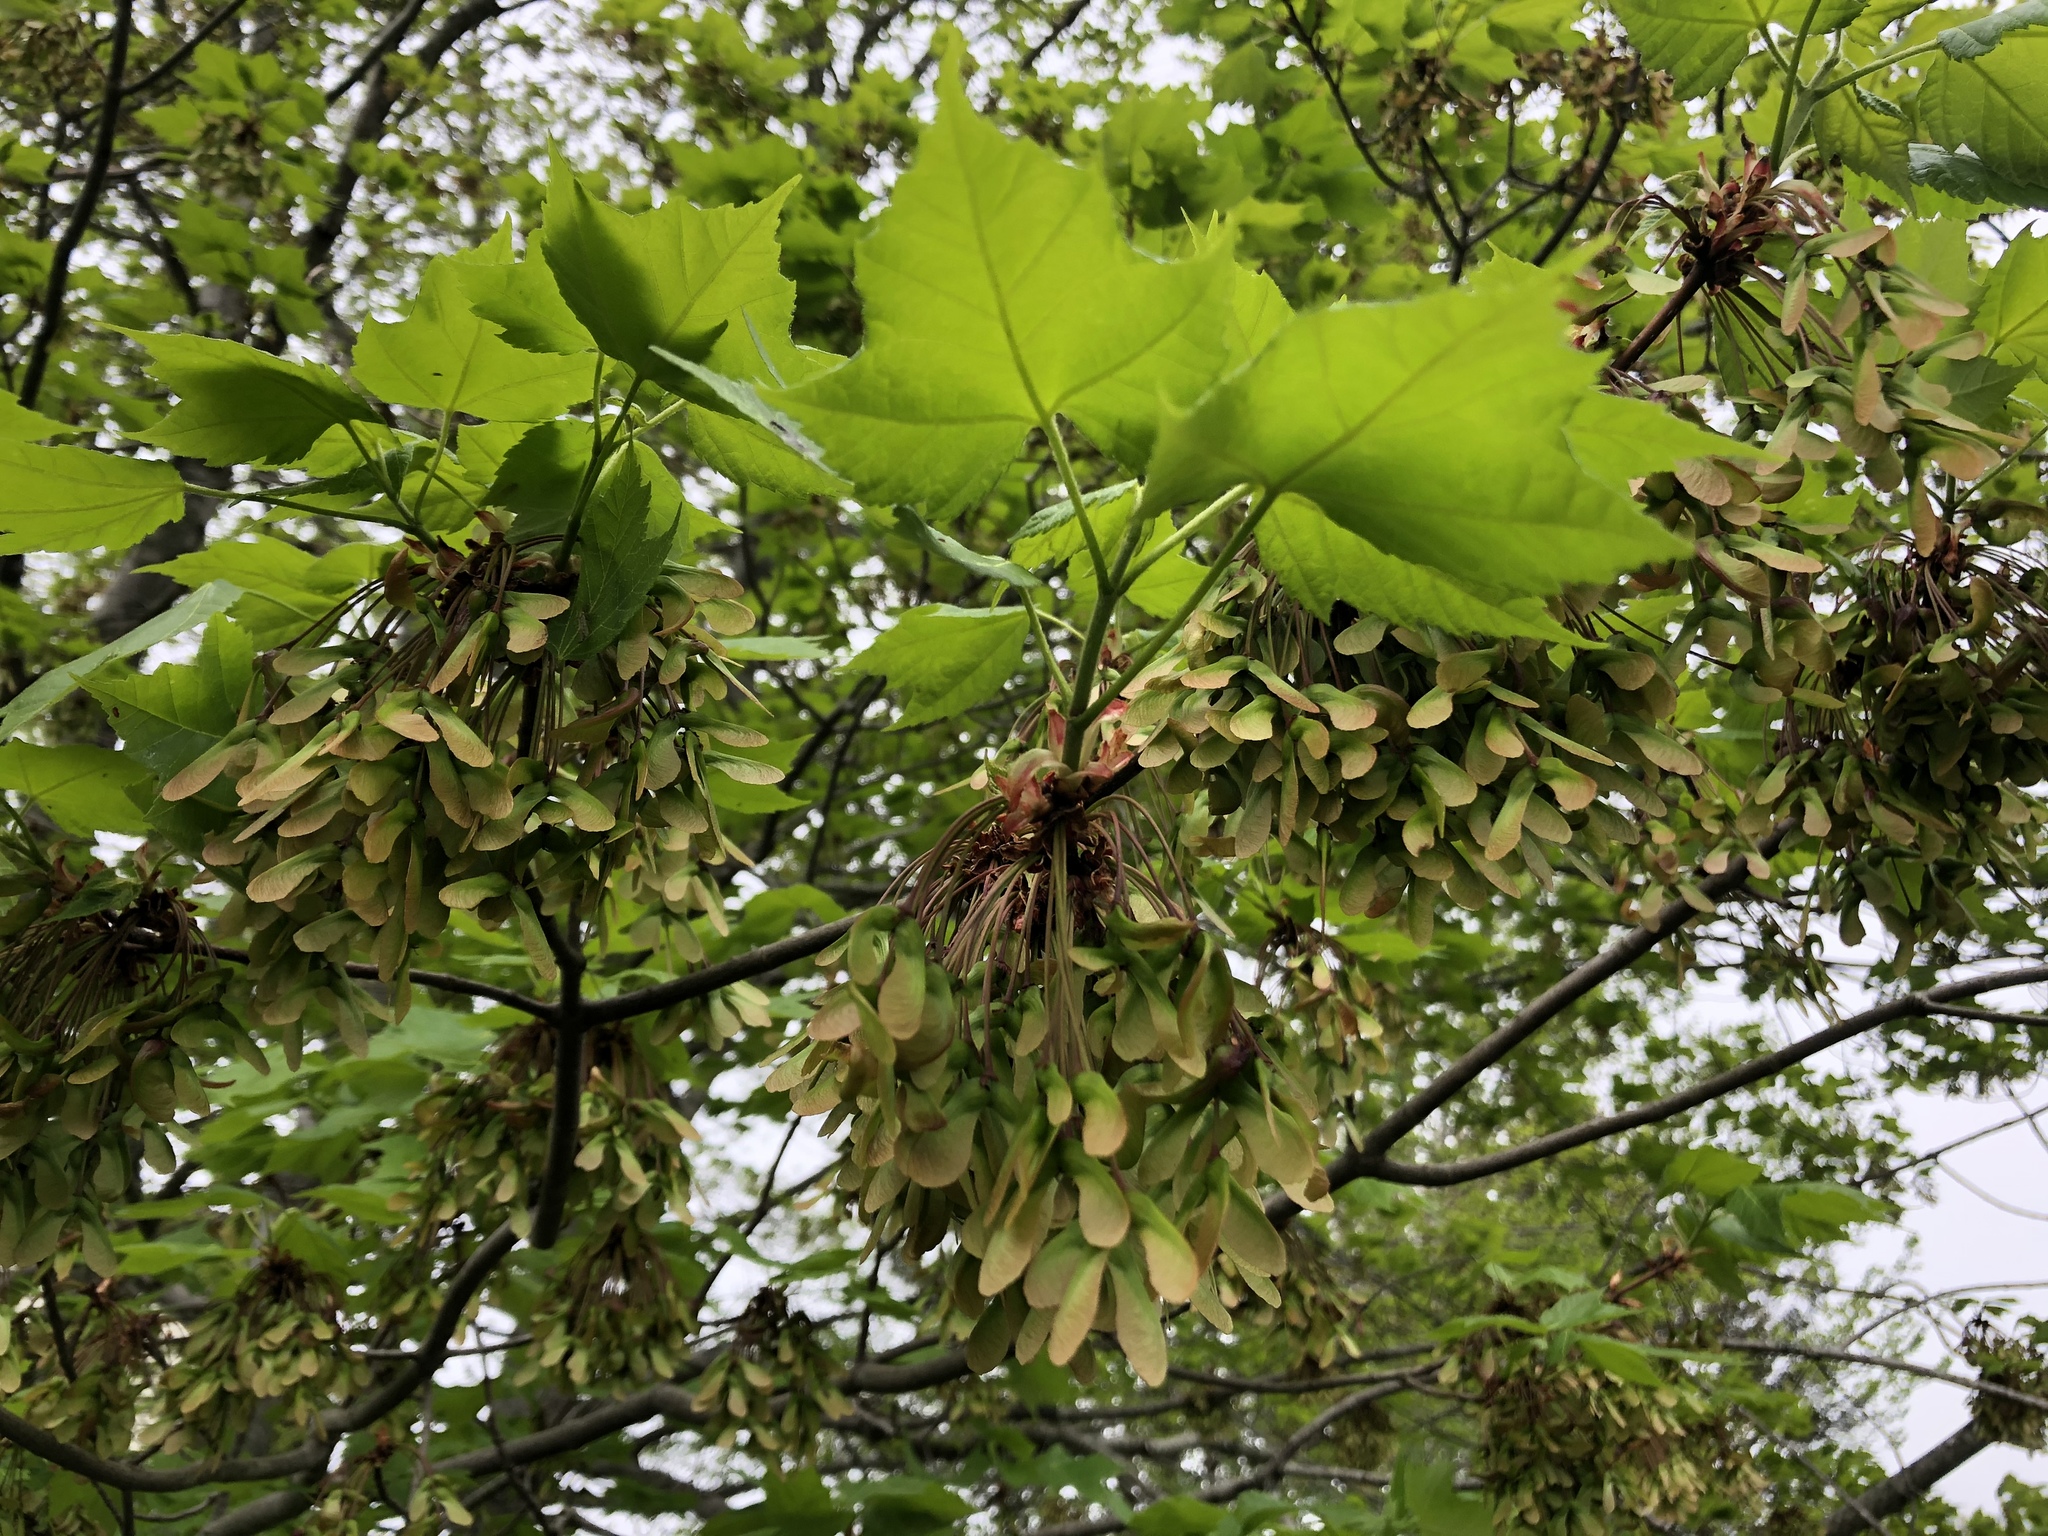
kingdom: Plantae
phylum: Tracheophyta
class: Magnoliopsida
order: Sapindales
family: Sapindaceae
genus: Acer
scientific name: Acer rubrum
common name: Red maple
